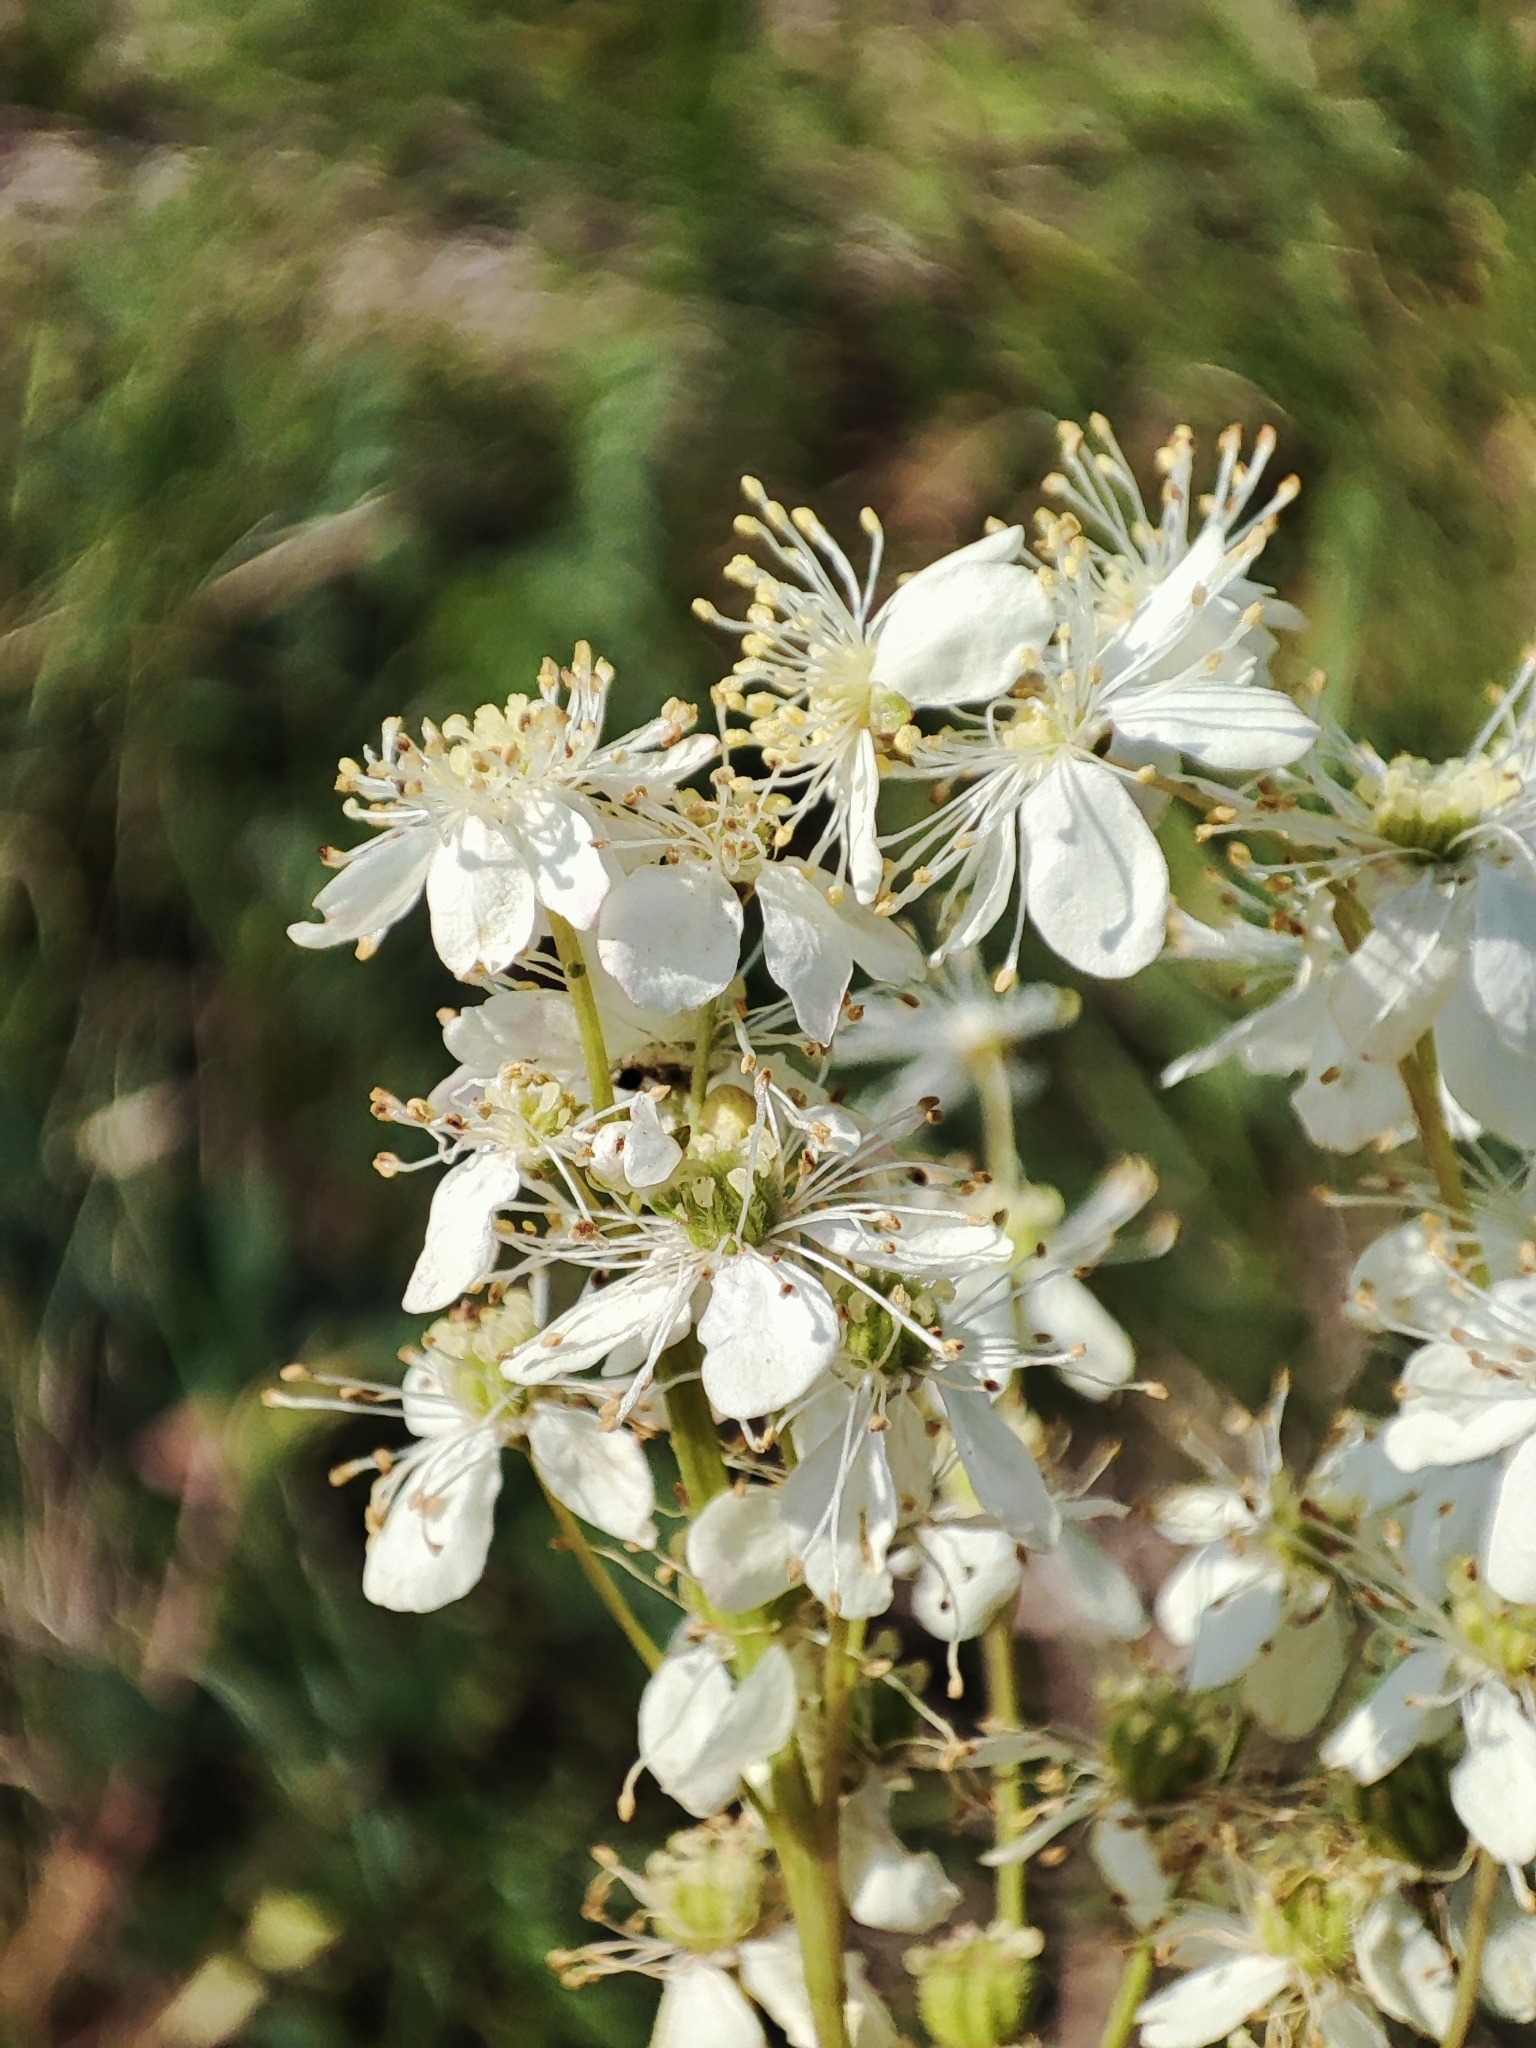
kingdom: Plantae
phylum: Tracheophyta
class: Magnoliopsida
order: Rosales
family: Rosaceae
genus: Filipendula
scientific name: Filipendula vulgaris
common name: Dropwort
